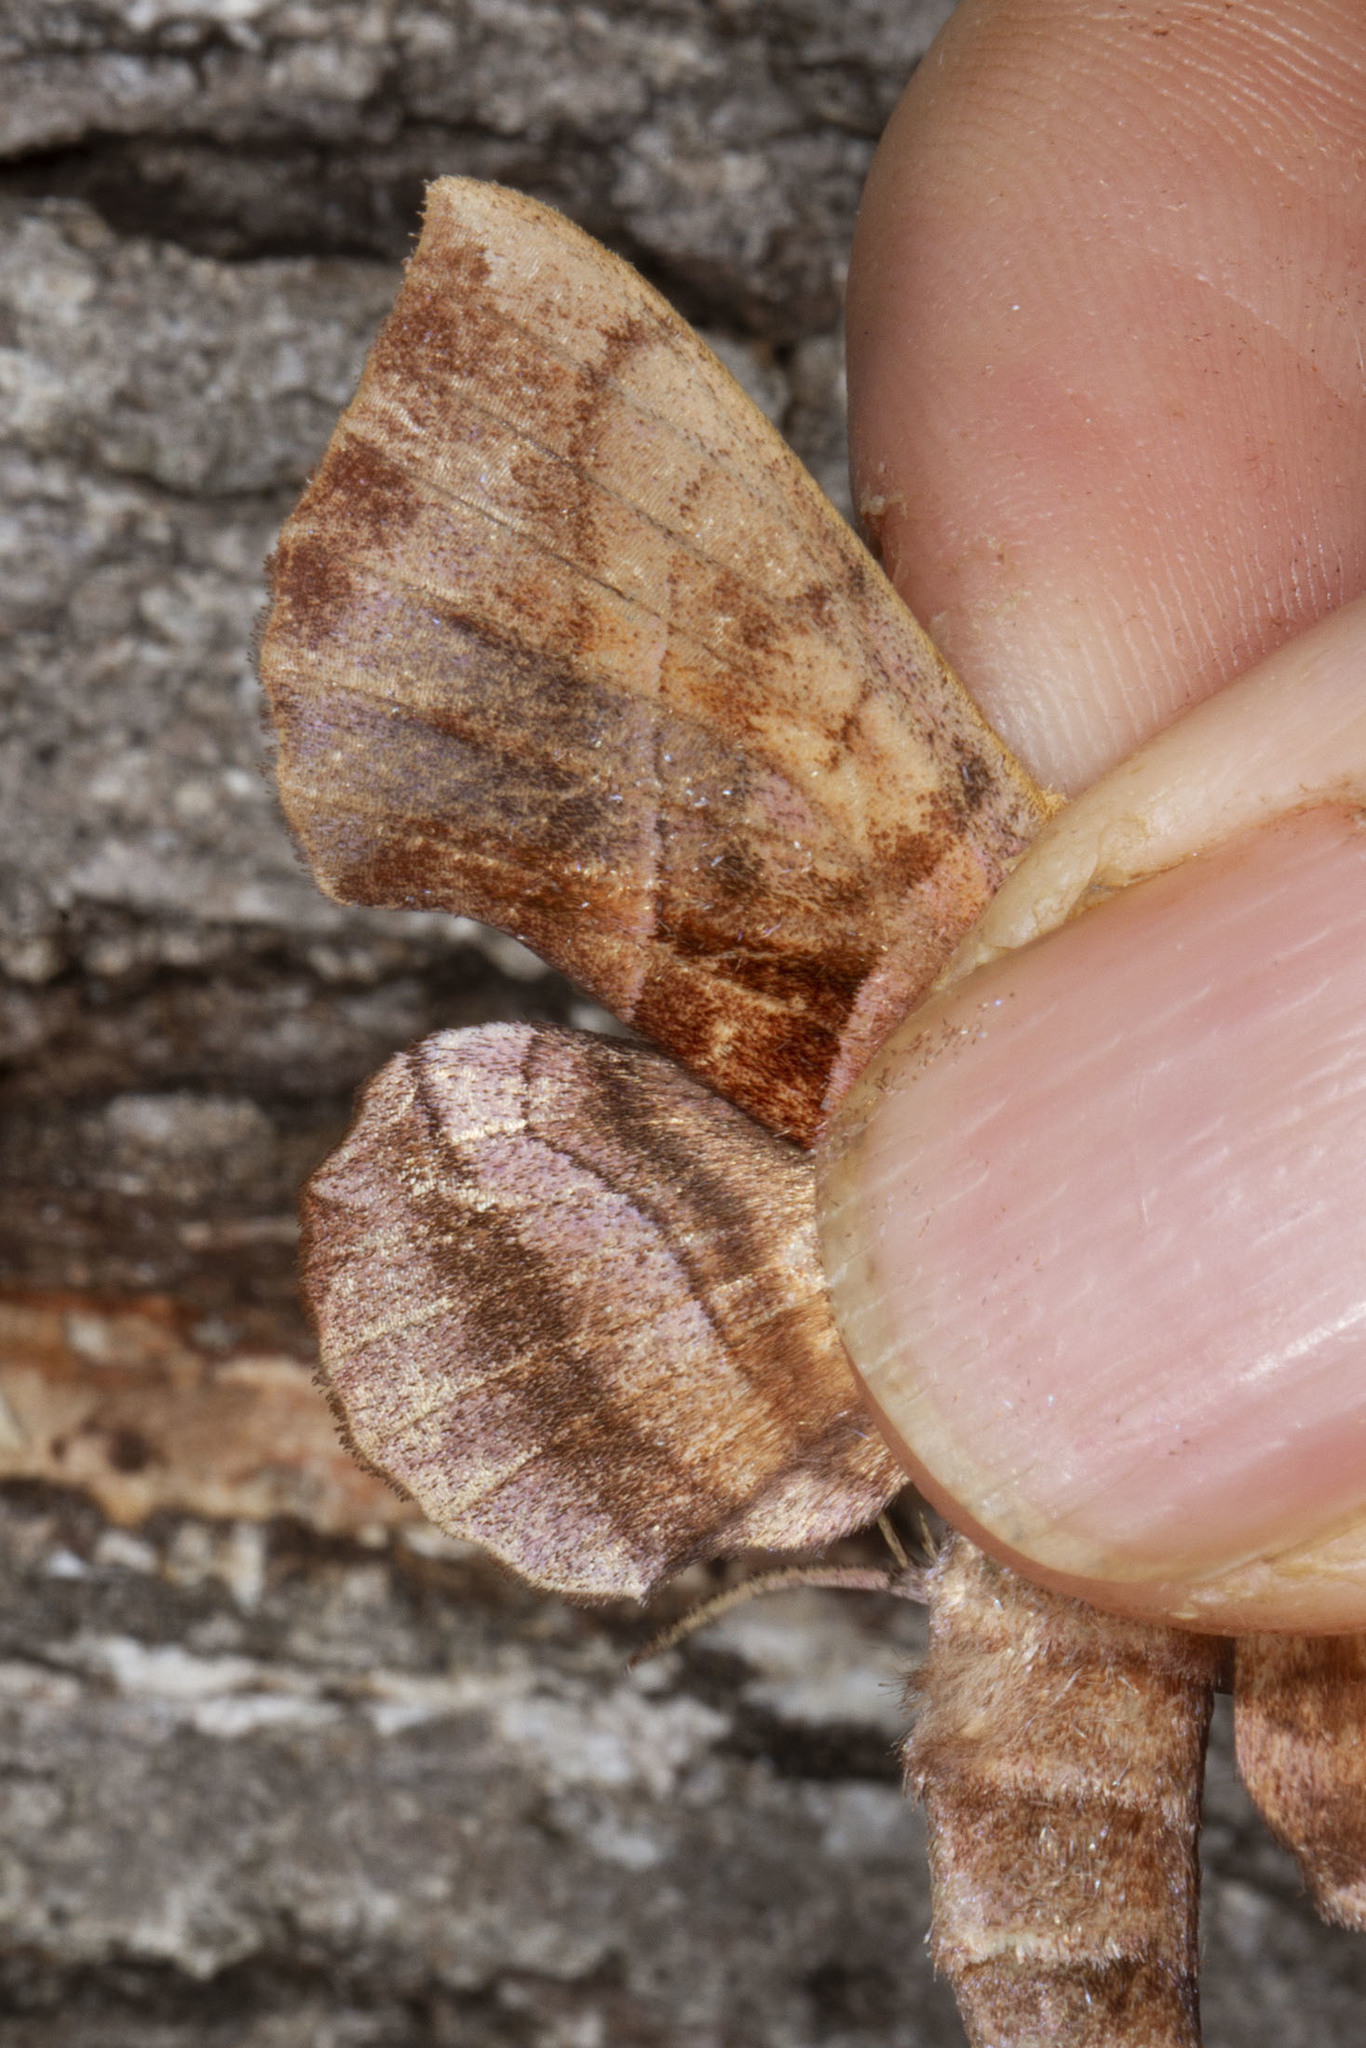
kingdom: Animalia
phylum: Arthropoda
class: Insecta
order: Lepidoptera
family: Sphingidae
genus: Amorpha
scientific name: Amorpha juglandis
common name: Walnut sphinx
